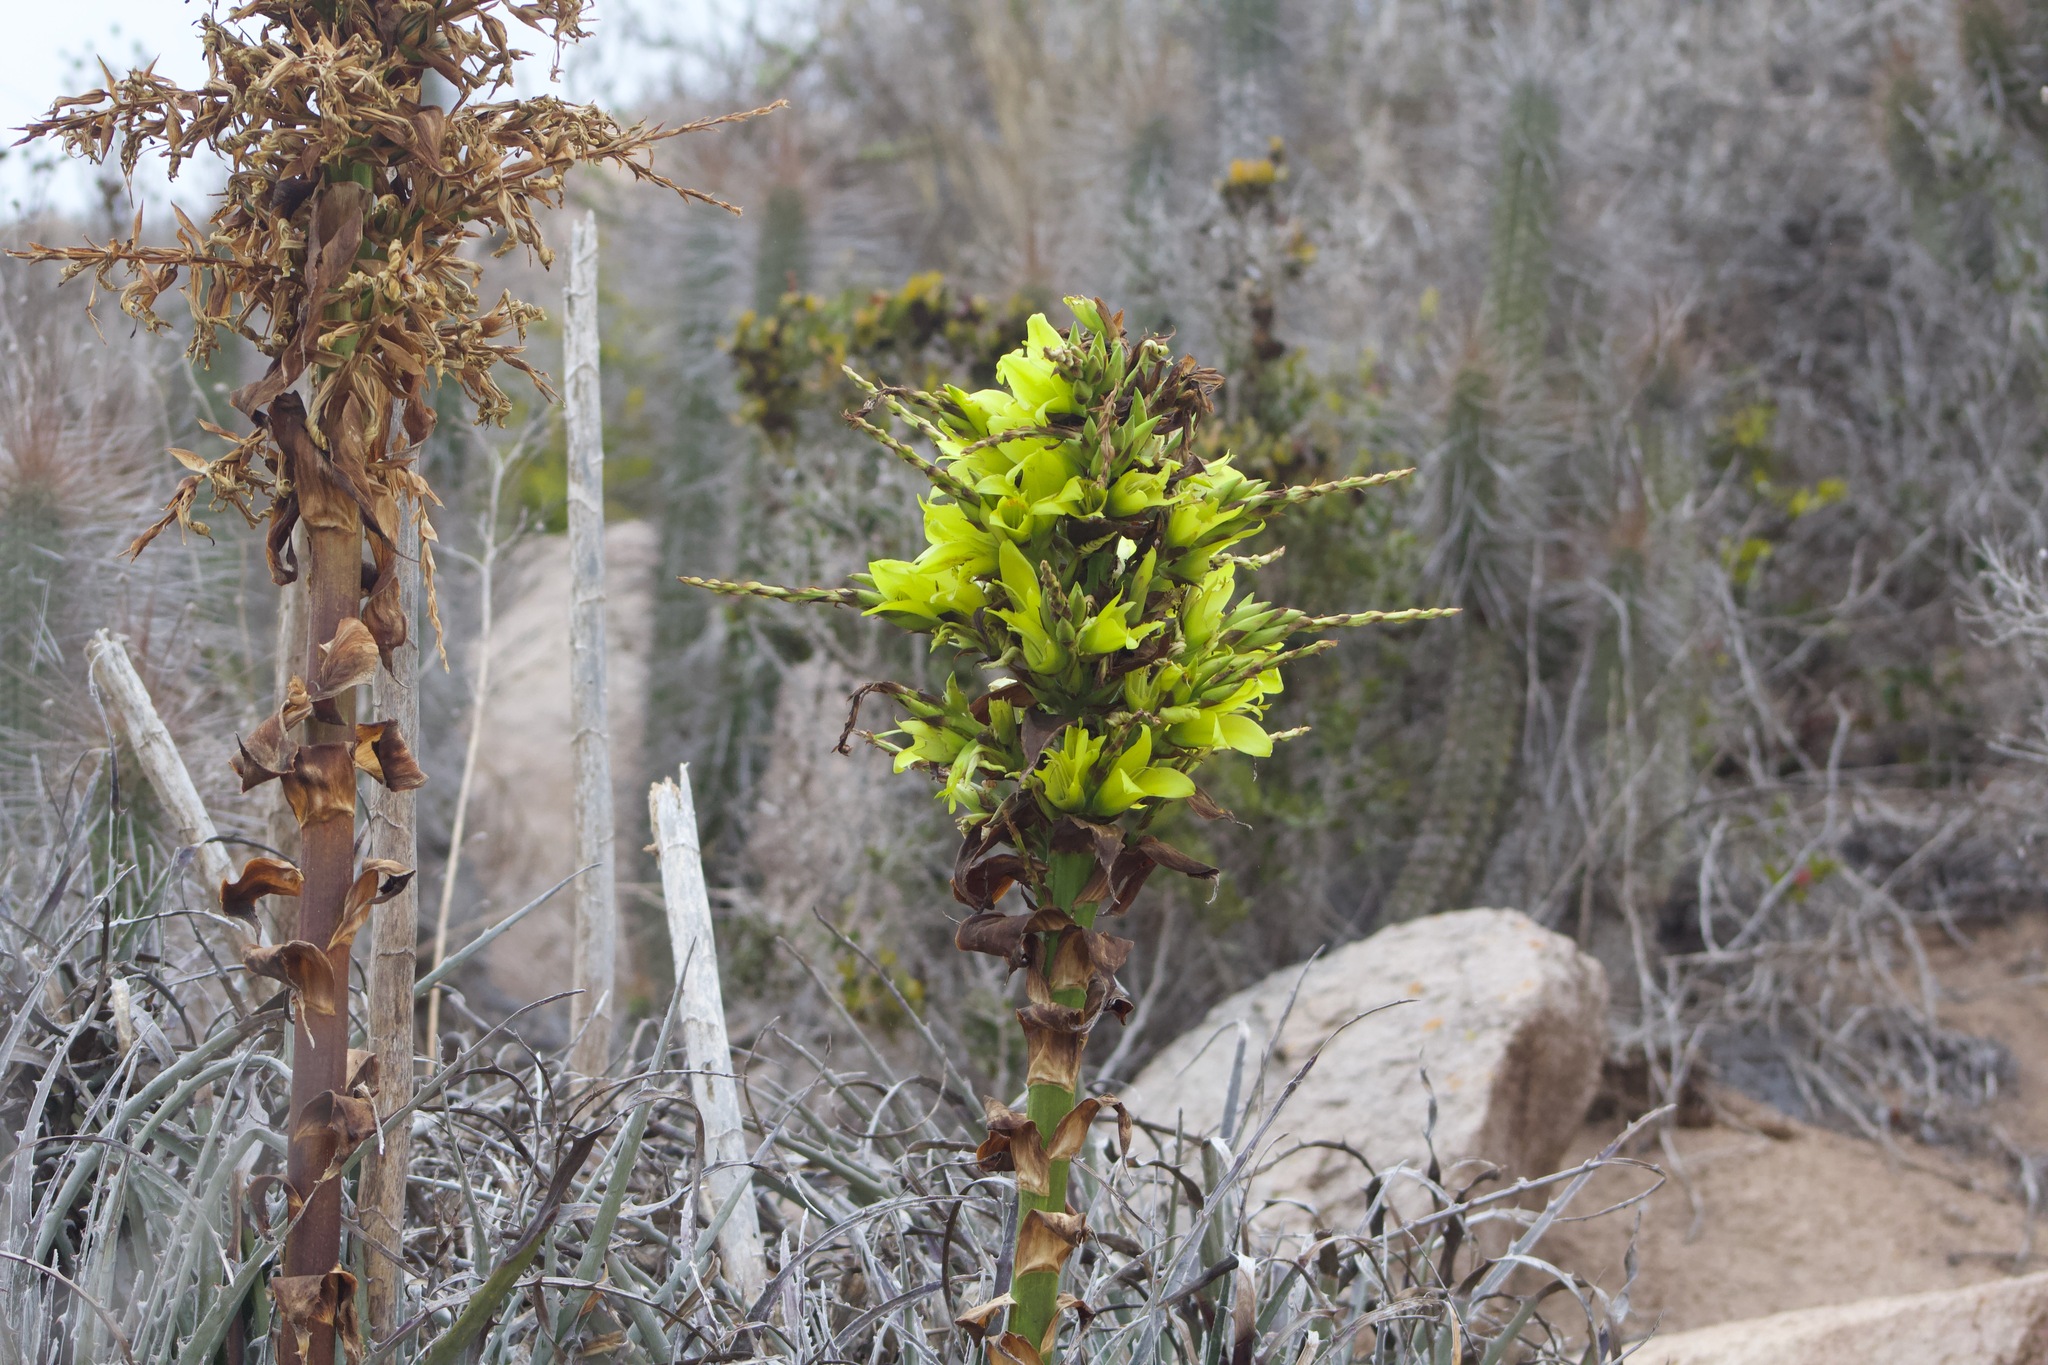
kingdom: Plantae
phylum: Tracheophyta
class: Liliopsida
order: Poales
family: Bromeliaceae
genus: Puya
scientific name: Puya gilmartiniae
